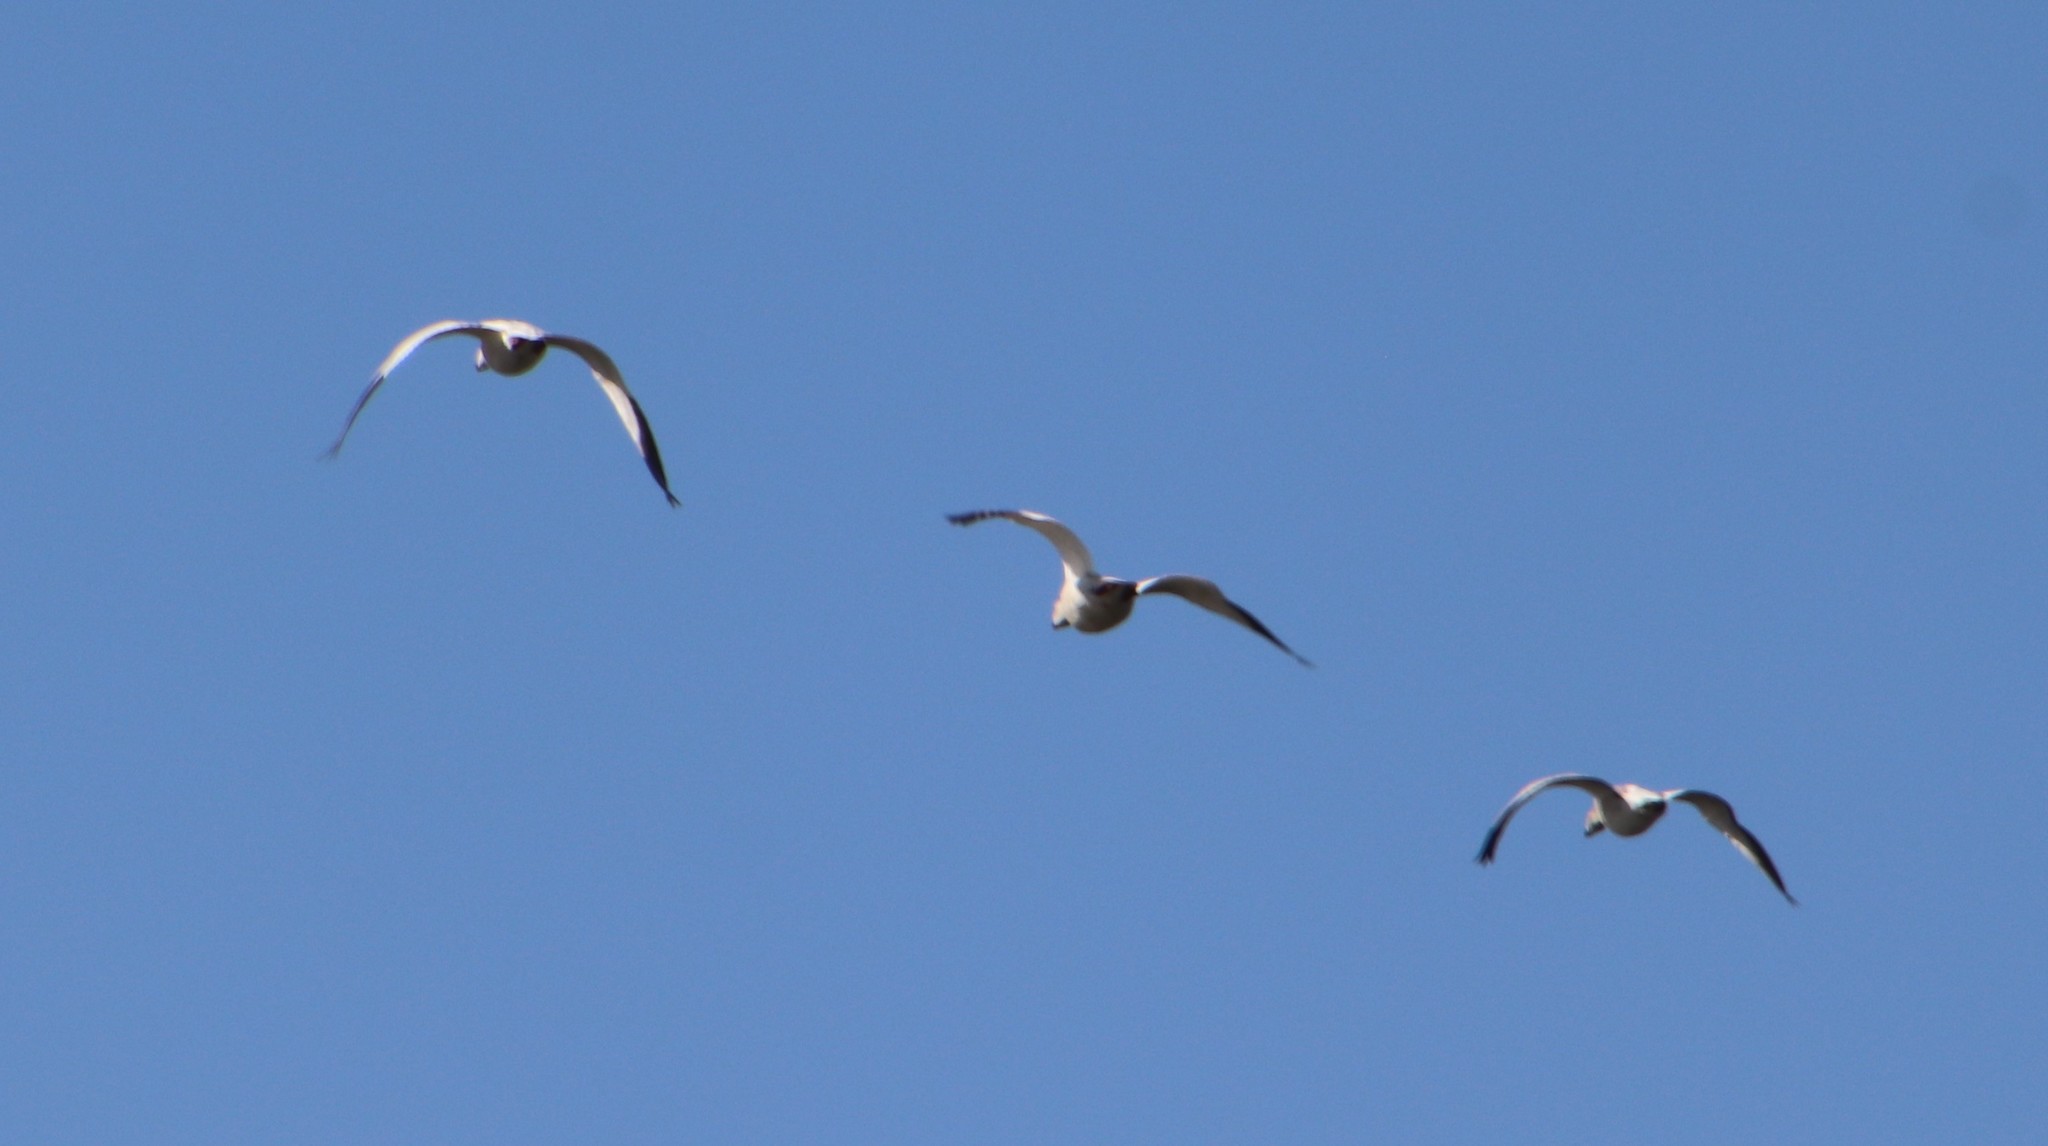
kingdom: Animalia
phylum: Chordata
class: Aves
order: Anseriformes
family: Anatidae
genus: Anser
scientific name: Anser caerulescens
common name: Snow goose
